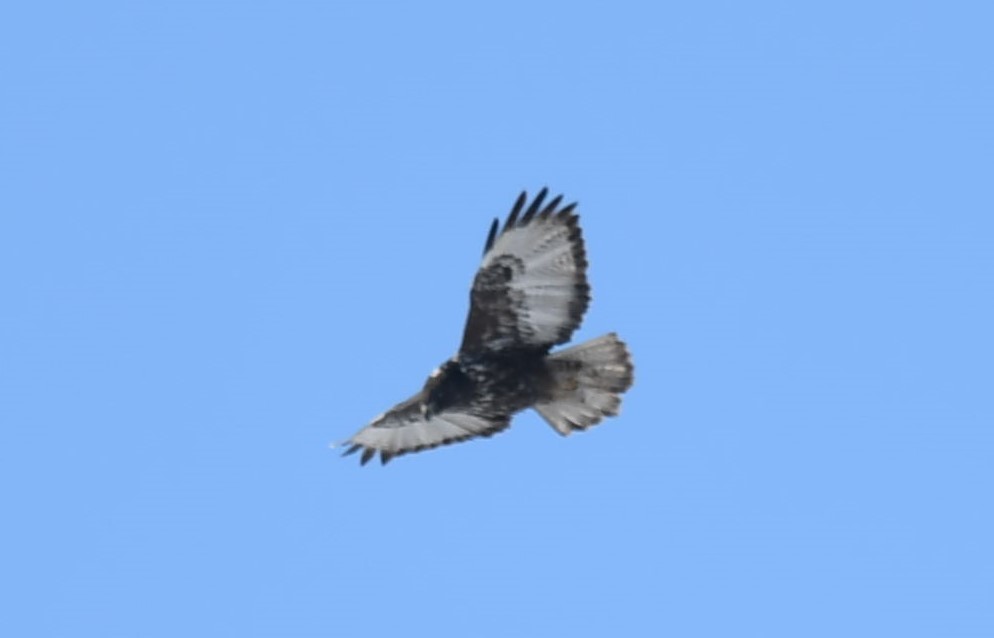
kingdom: Animalia
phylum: Chordata
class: Aves
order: Accipitriformes
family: Accipitridae
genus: Buteo
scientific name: Buteo jamaicensis
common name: Red-tailed hawk
